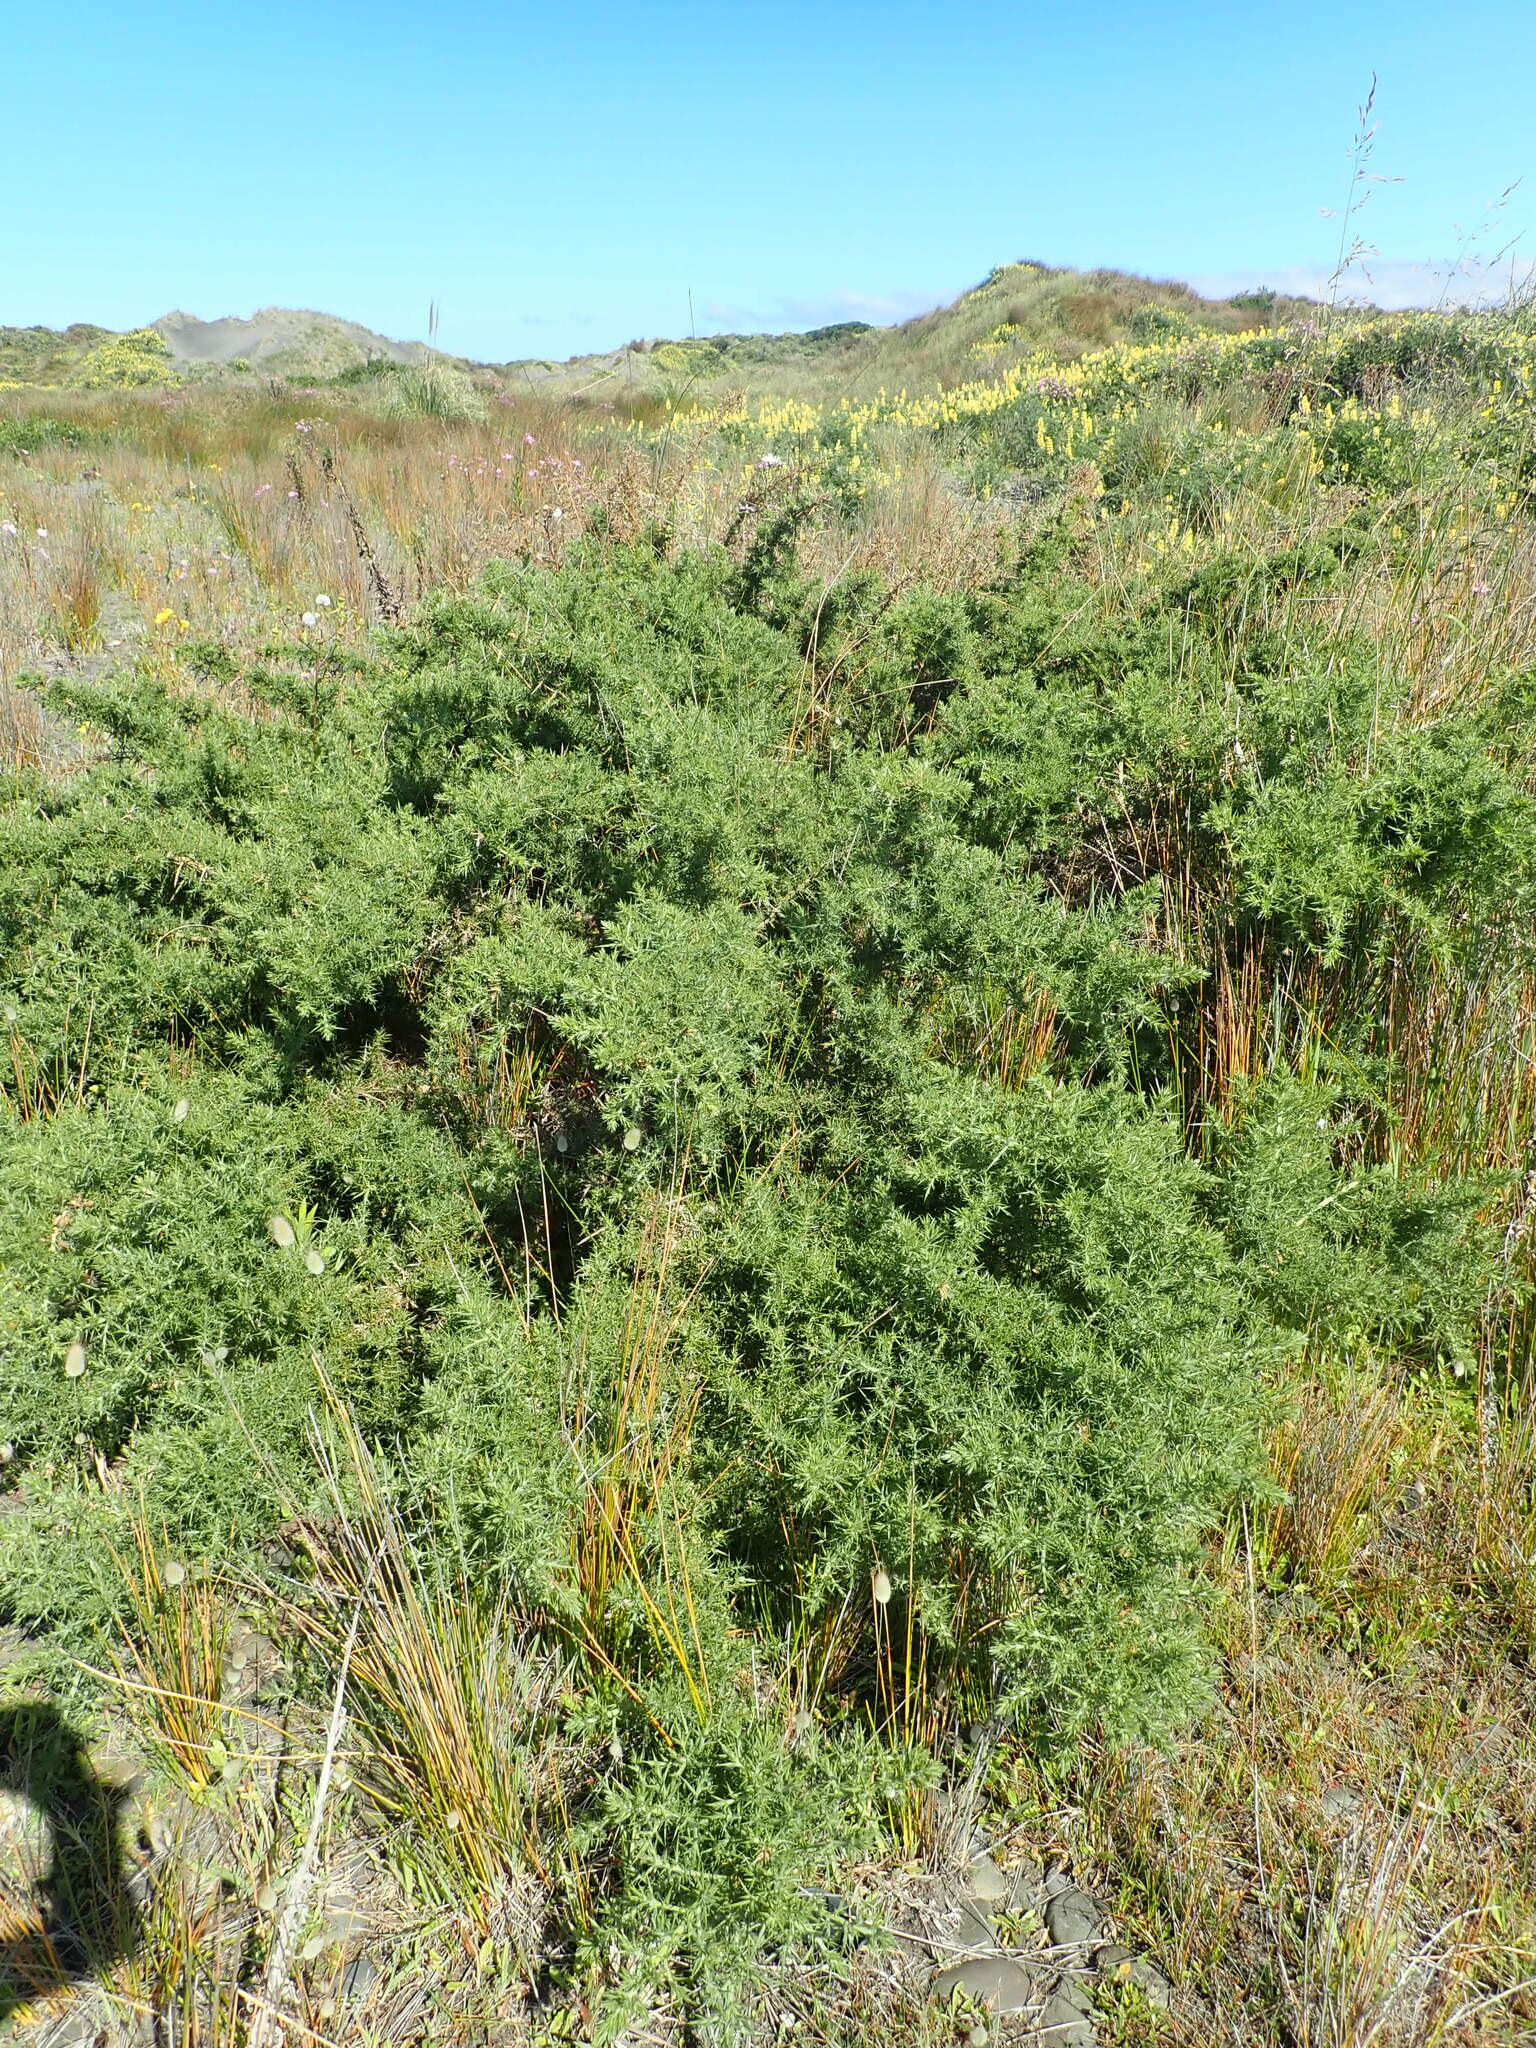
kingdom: Plantae
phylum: Tracheophyta
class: Magnoliopsida
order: Fabales
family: Fabaceae
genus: Ulex
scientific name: Ulex europaeus
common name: Common gorse
